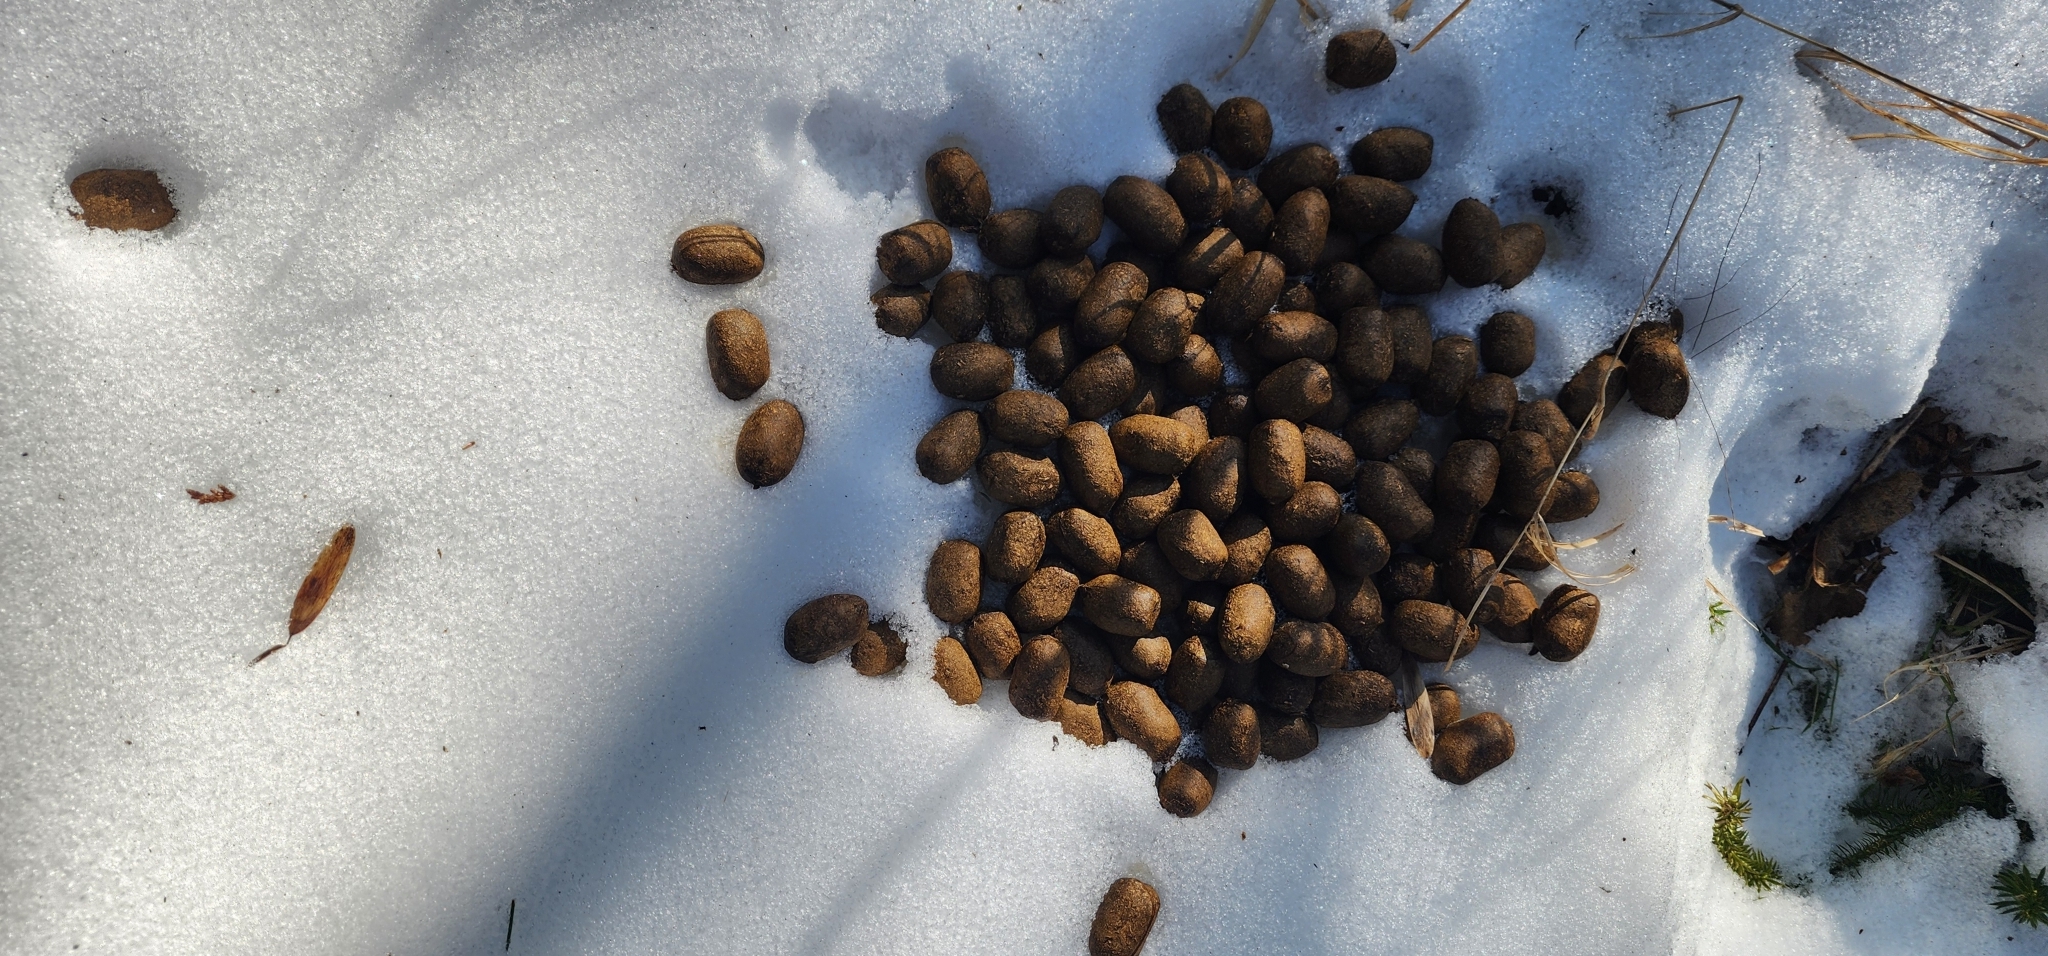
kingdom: Animalia
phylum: Chordata
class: Mammalia
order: Artiodactyla
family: Cervidae
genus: Alces
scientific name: Alces alces
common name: Moose
